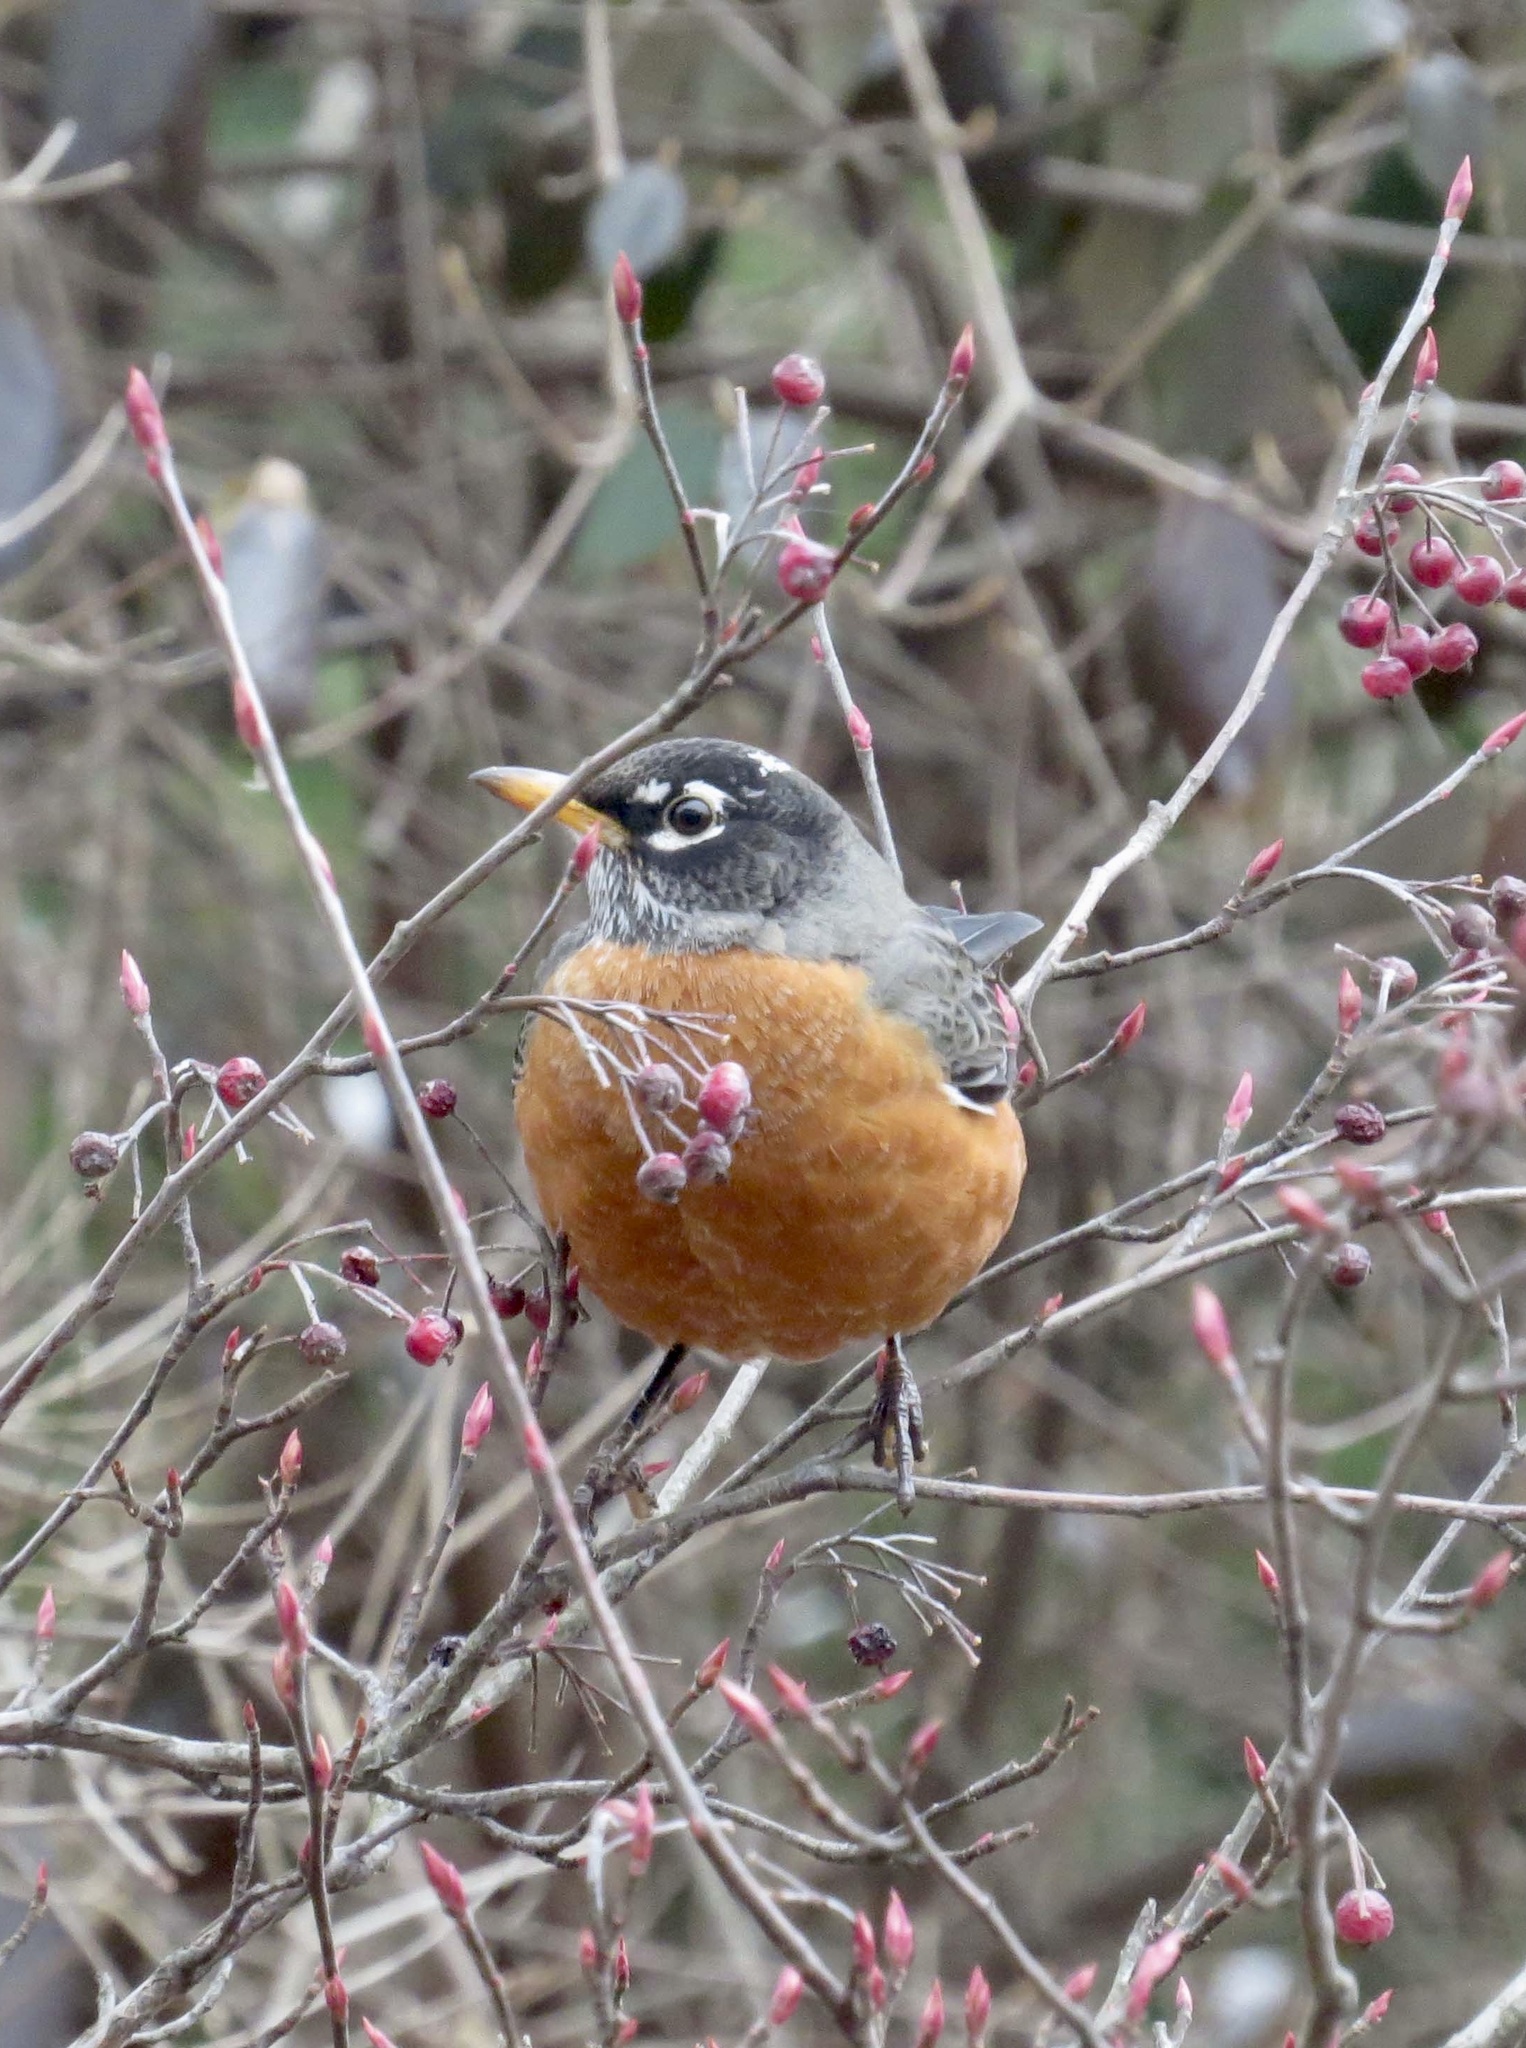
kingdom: Animalia
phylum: Chordata
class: Aves
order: Passeriformes
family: Turdidae
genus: Turdus
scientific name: Turdus migratorius
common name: American robin
